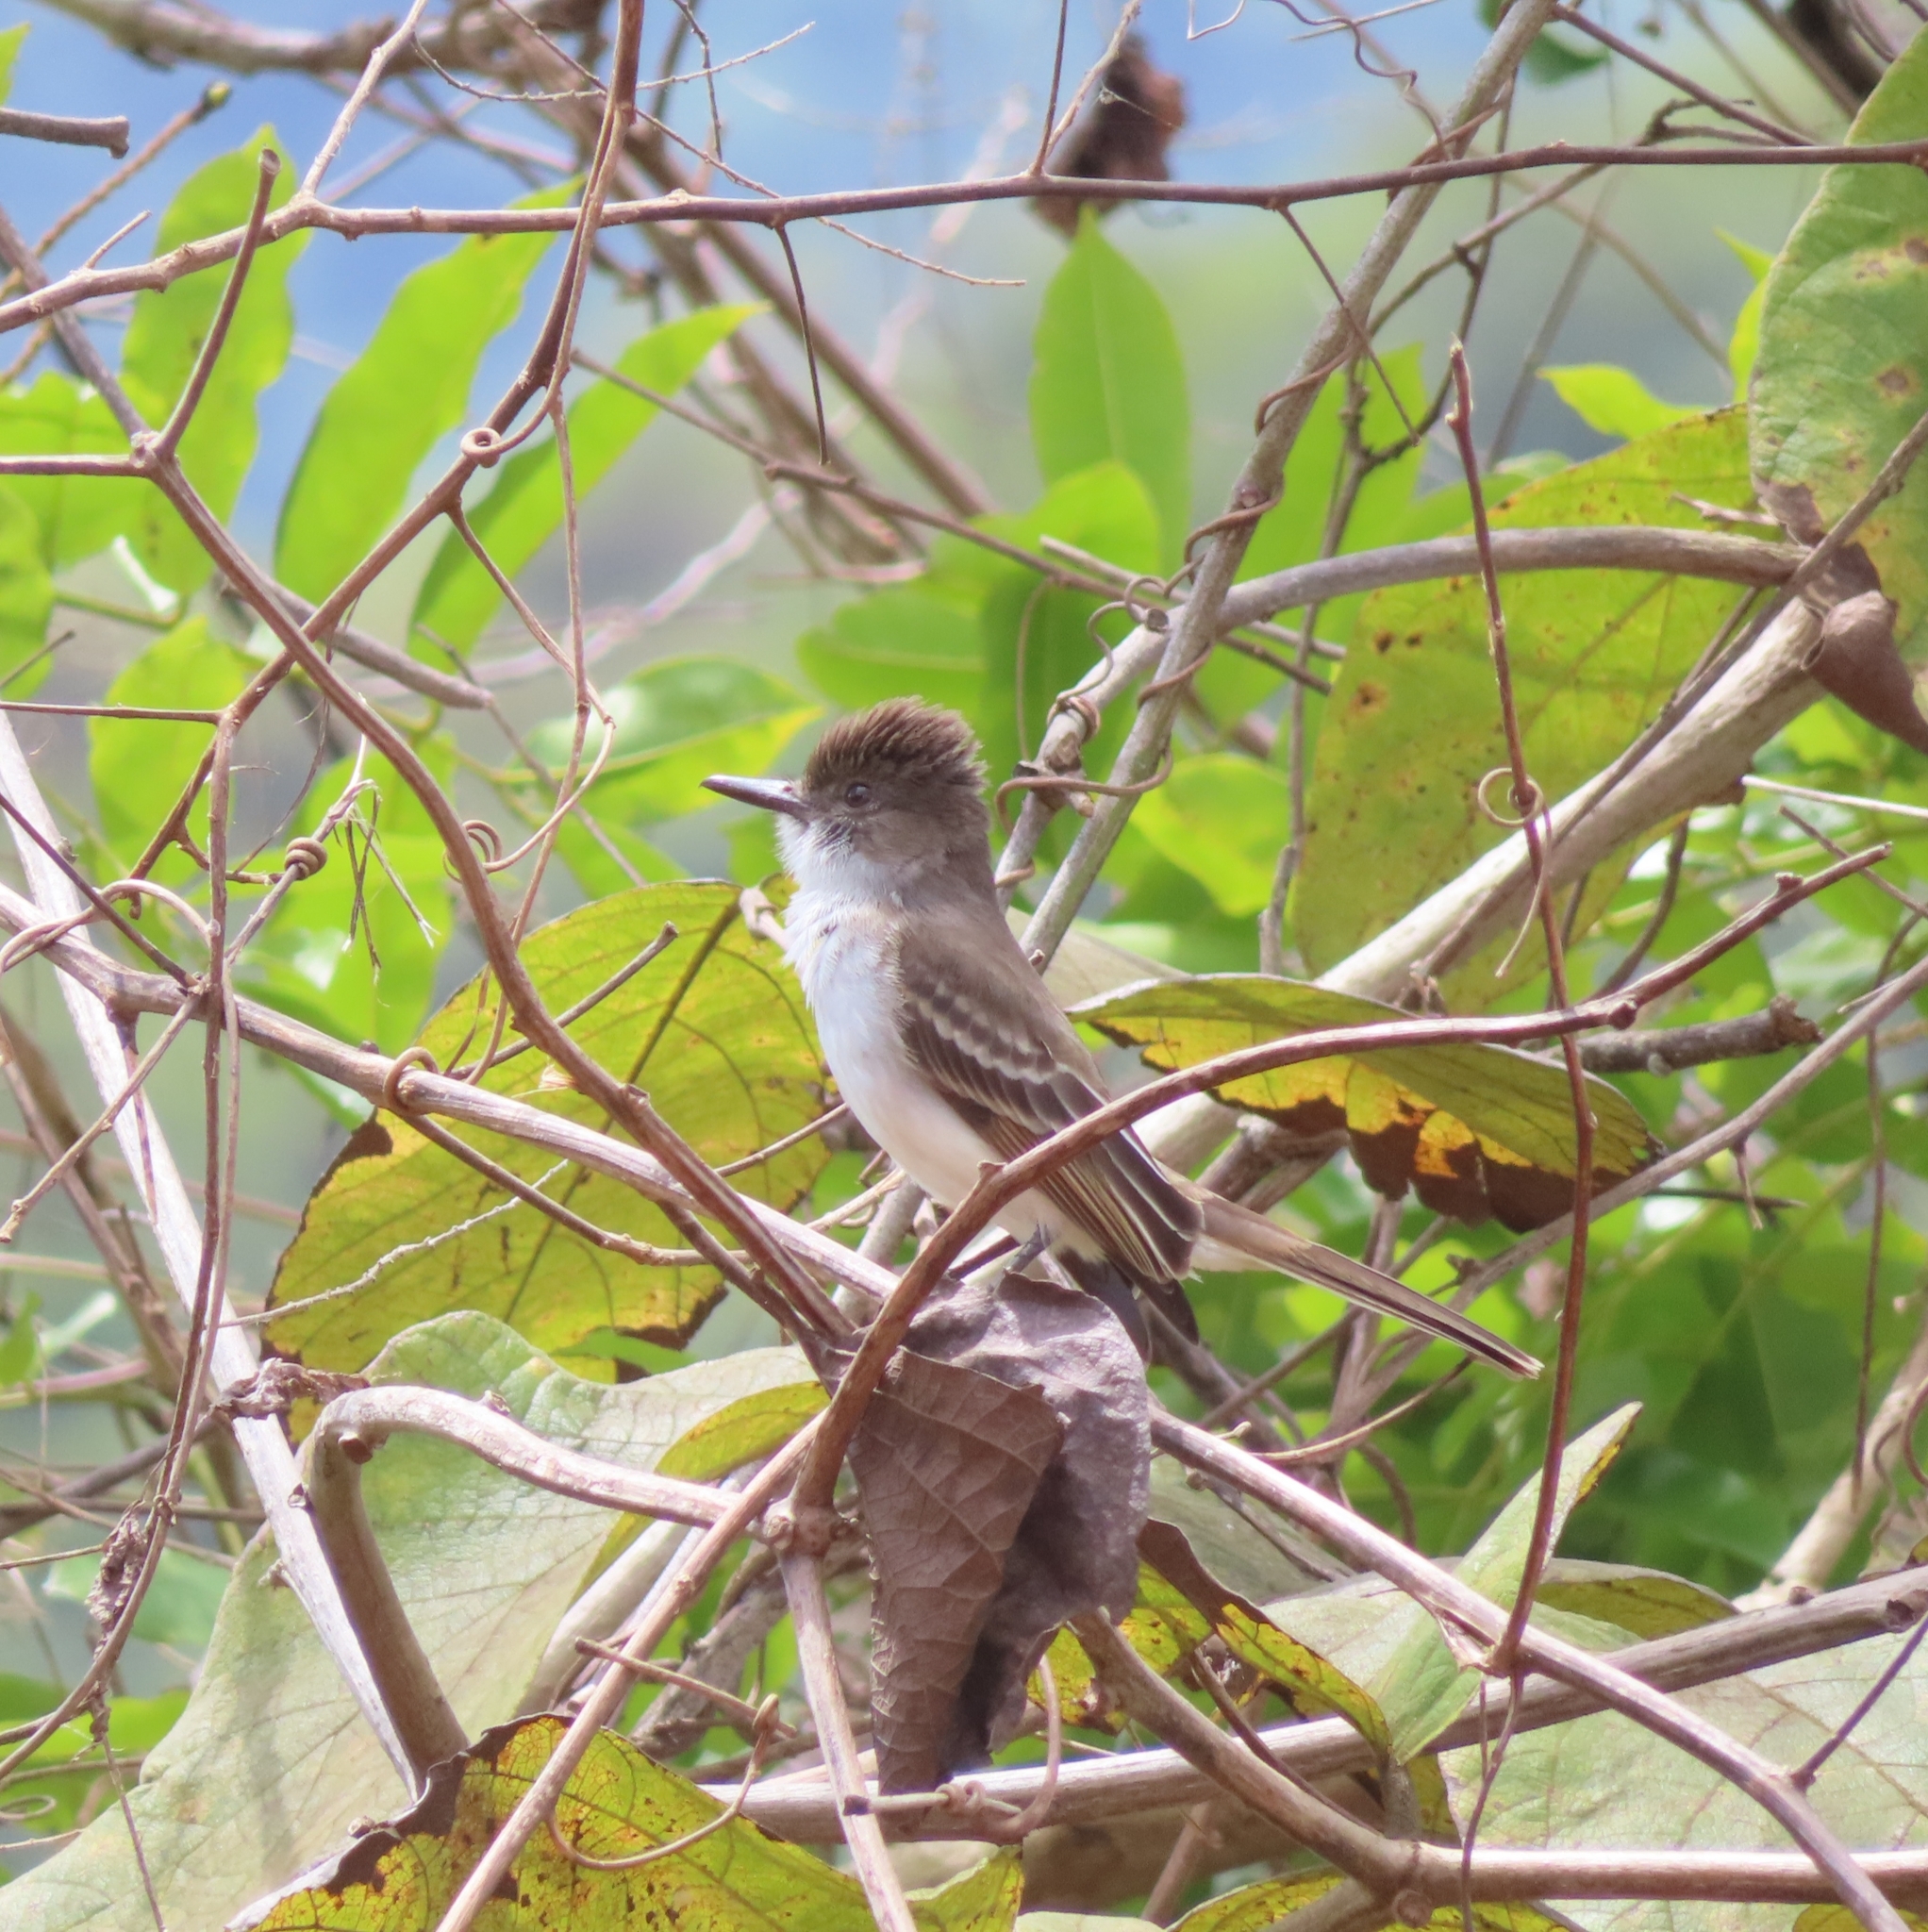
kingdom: Animalia
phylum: Chordata
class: Aves
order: Passeriformes
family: Tyrannidae
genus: Myiarchus
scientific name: Myiarchus antillarum
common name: Puerto rican flycatcher
